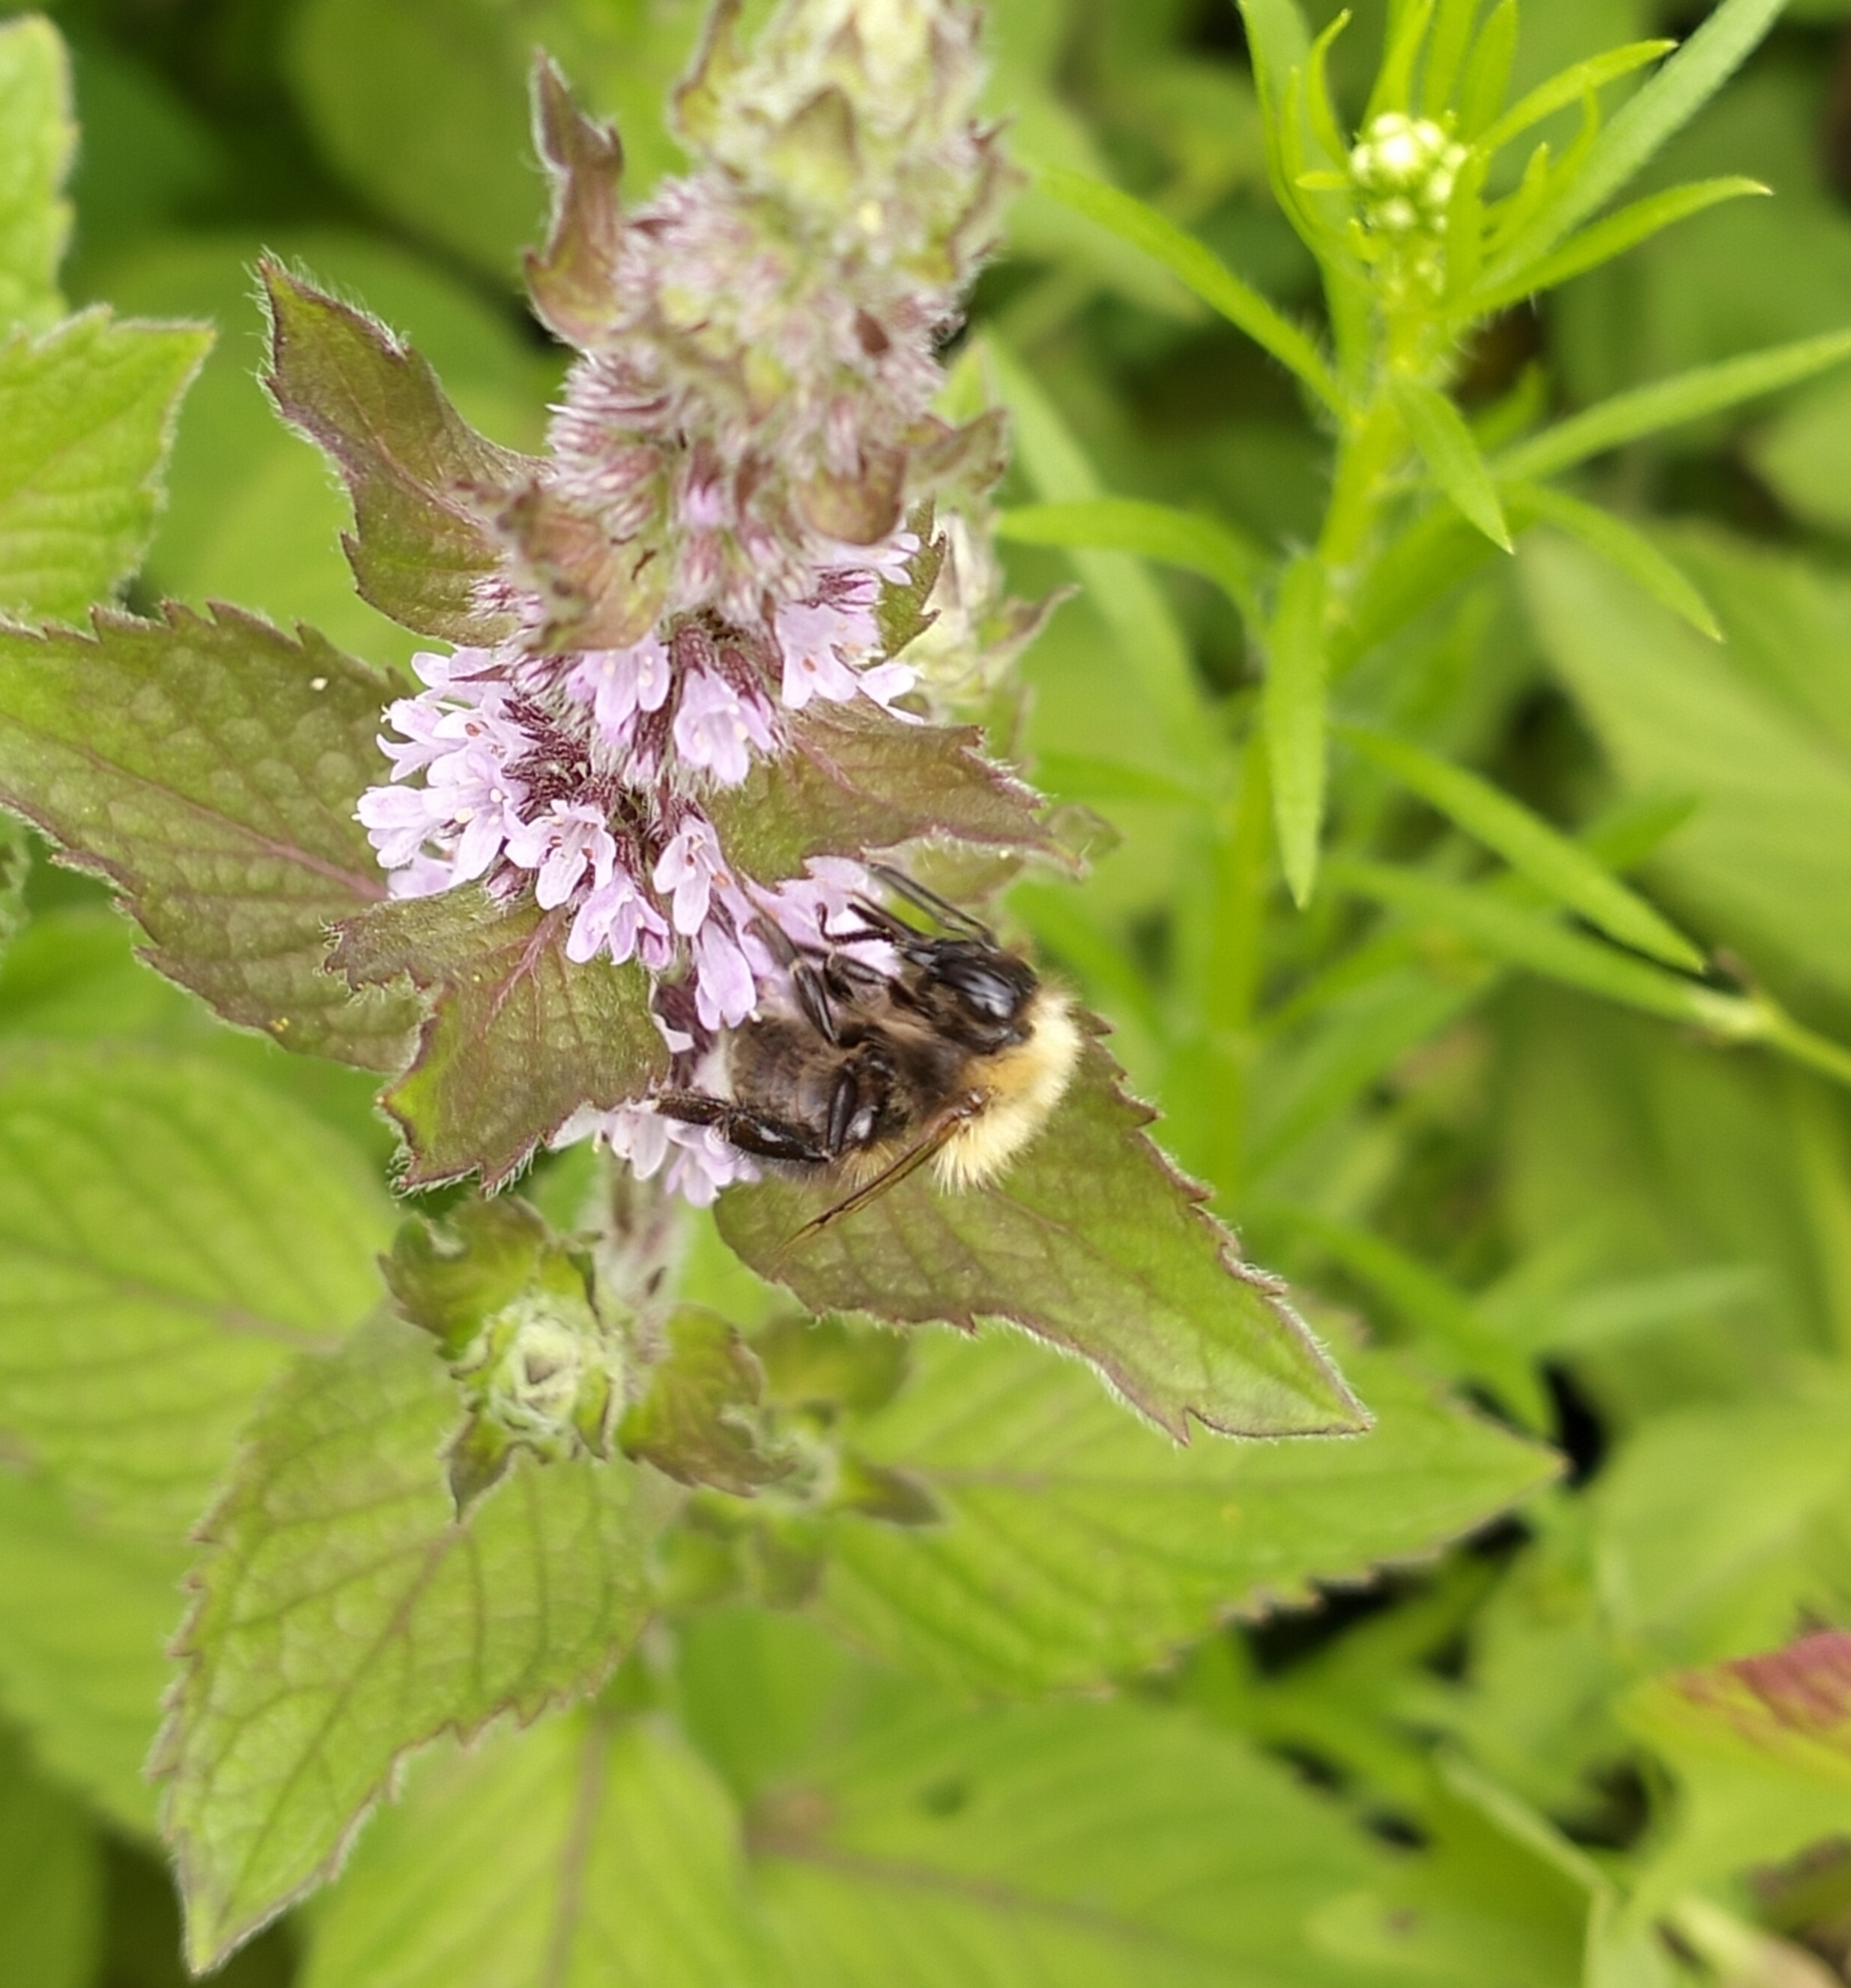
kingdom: Animalia
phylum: Arthropoda
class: Insecta
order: Hymenoptera
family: Apidae
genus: Bombus
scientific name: Bombus hypnorum
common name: New garden bumblebee
